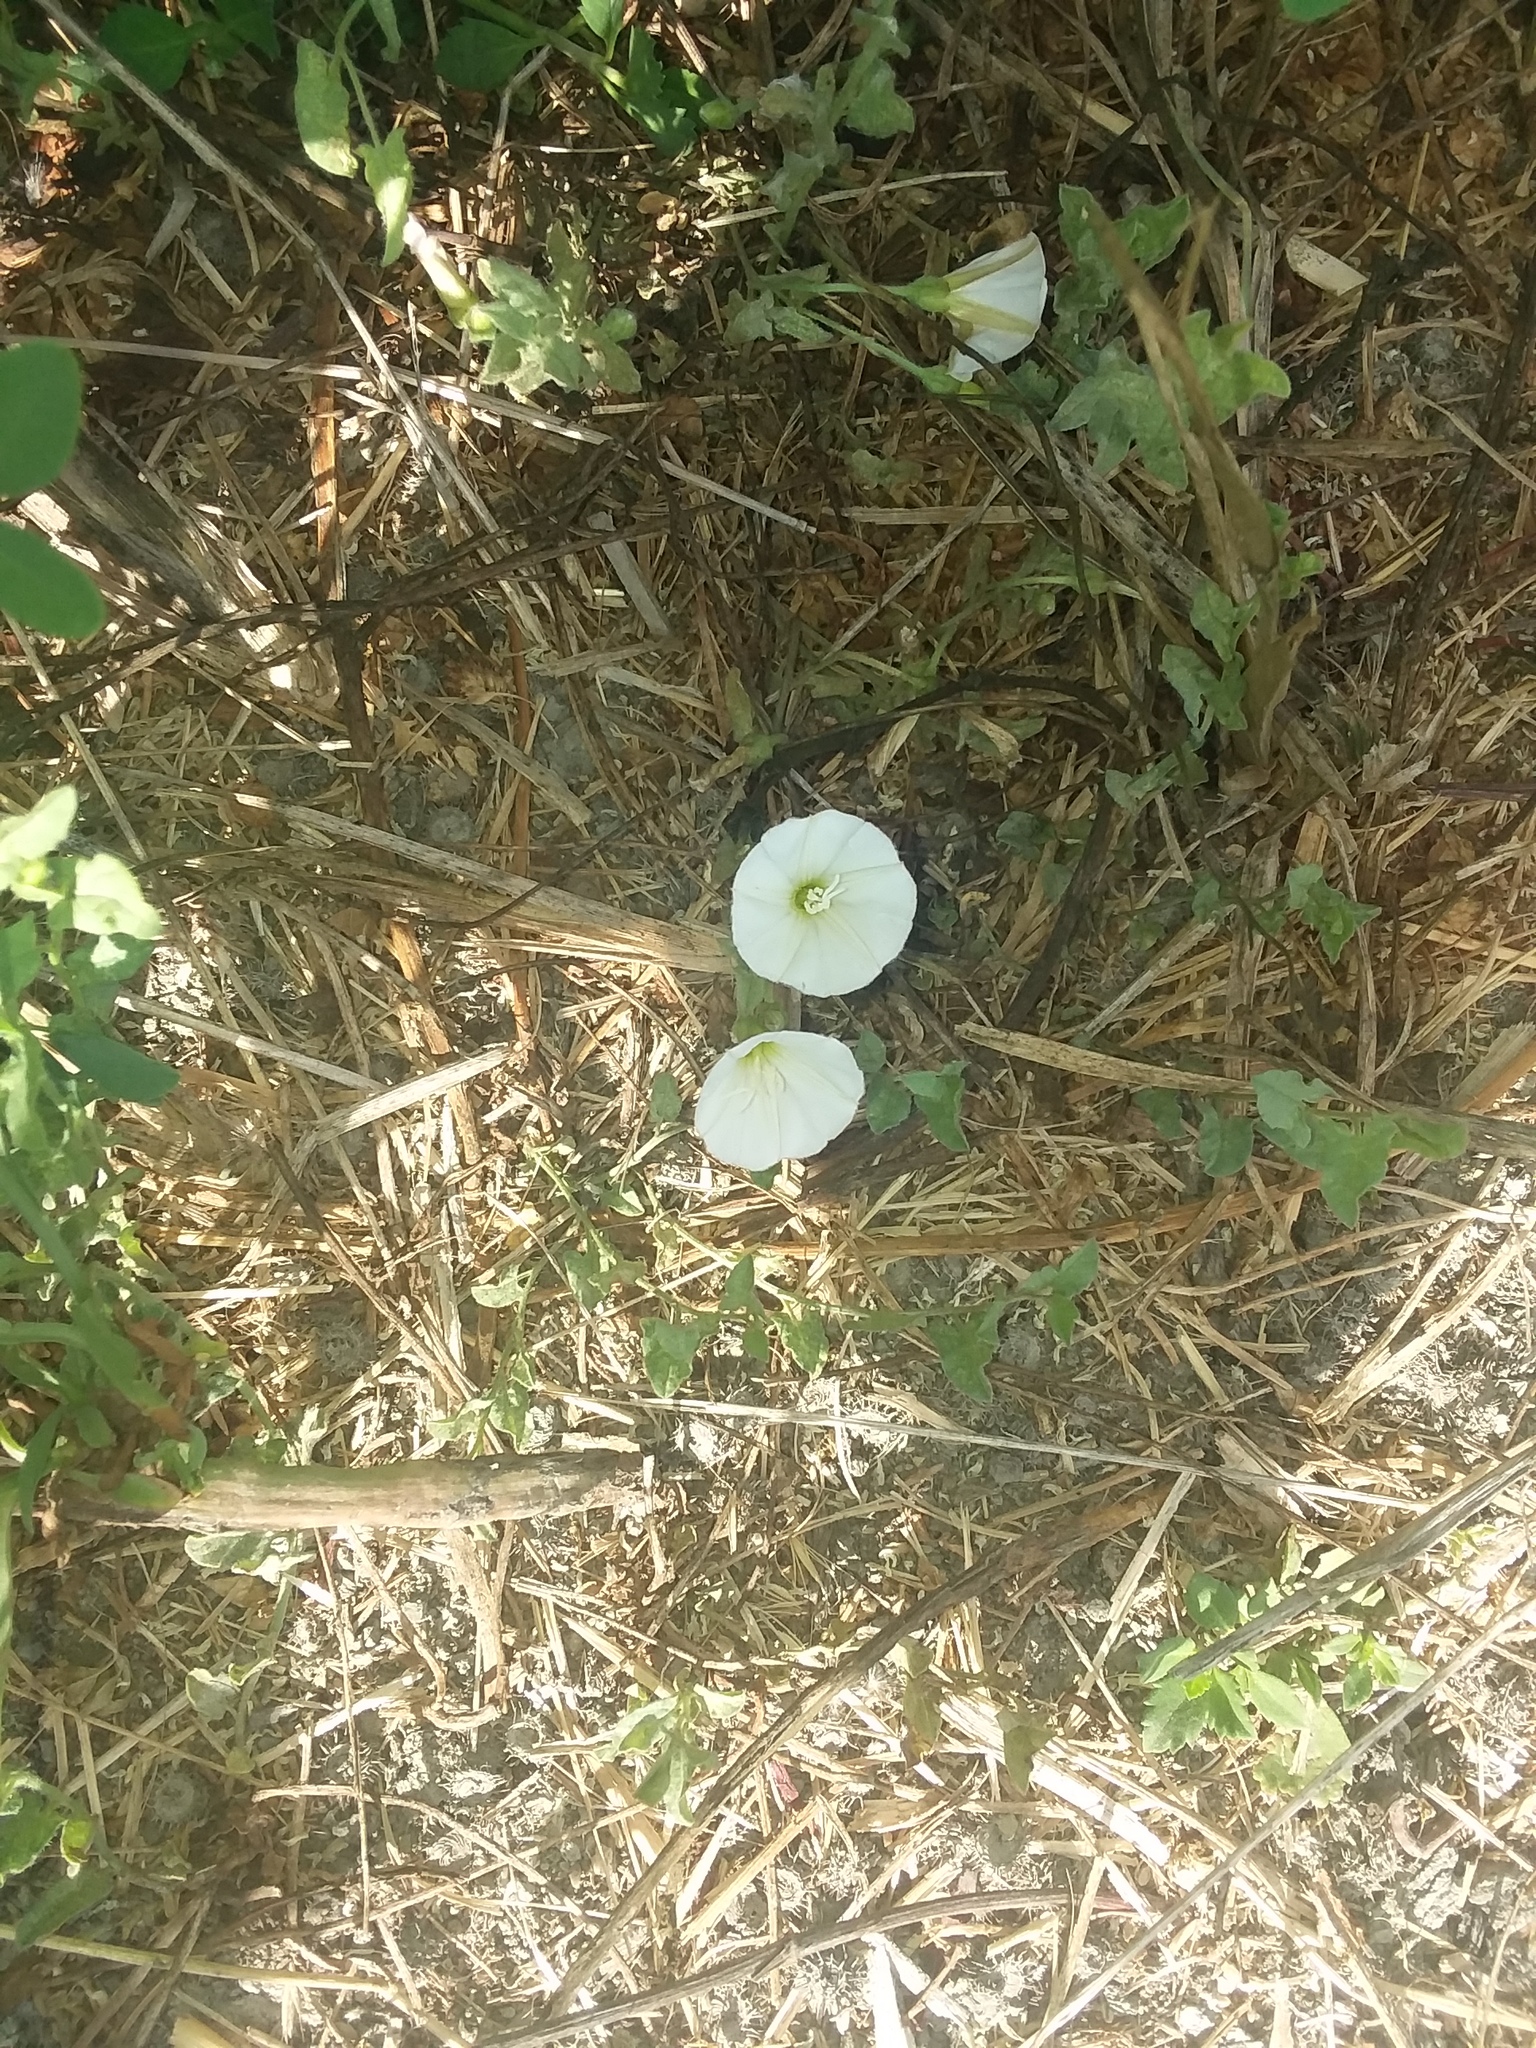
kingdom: Plantae
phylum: Tracheophyta
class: Magnoliopsida
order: Solanales
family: Convolvulaceae
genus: Convolvulus
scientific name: Convolvulus arvensis
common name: Field bindweed
